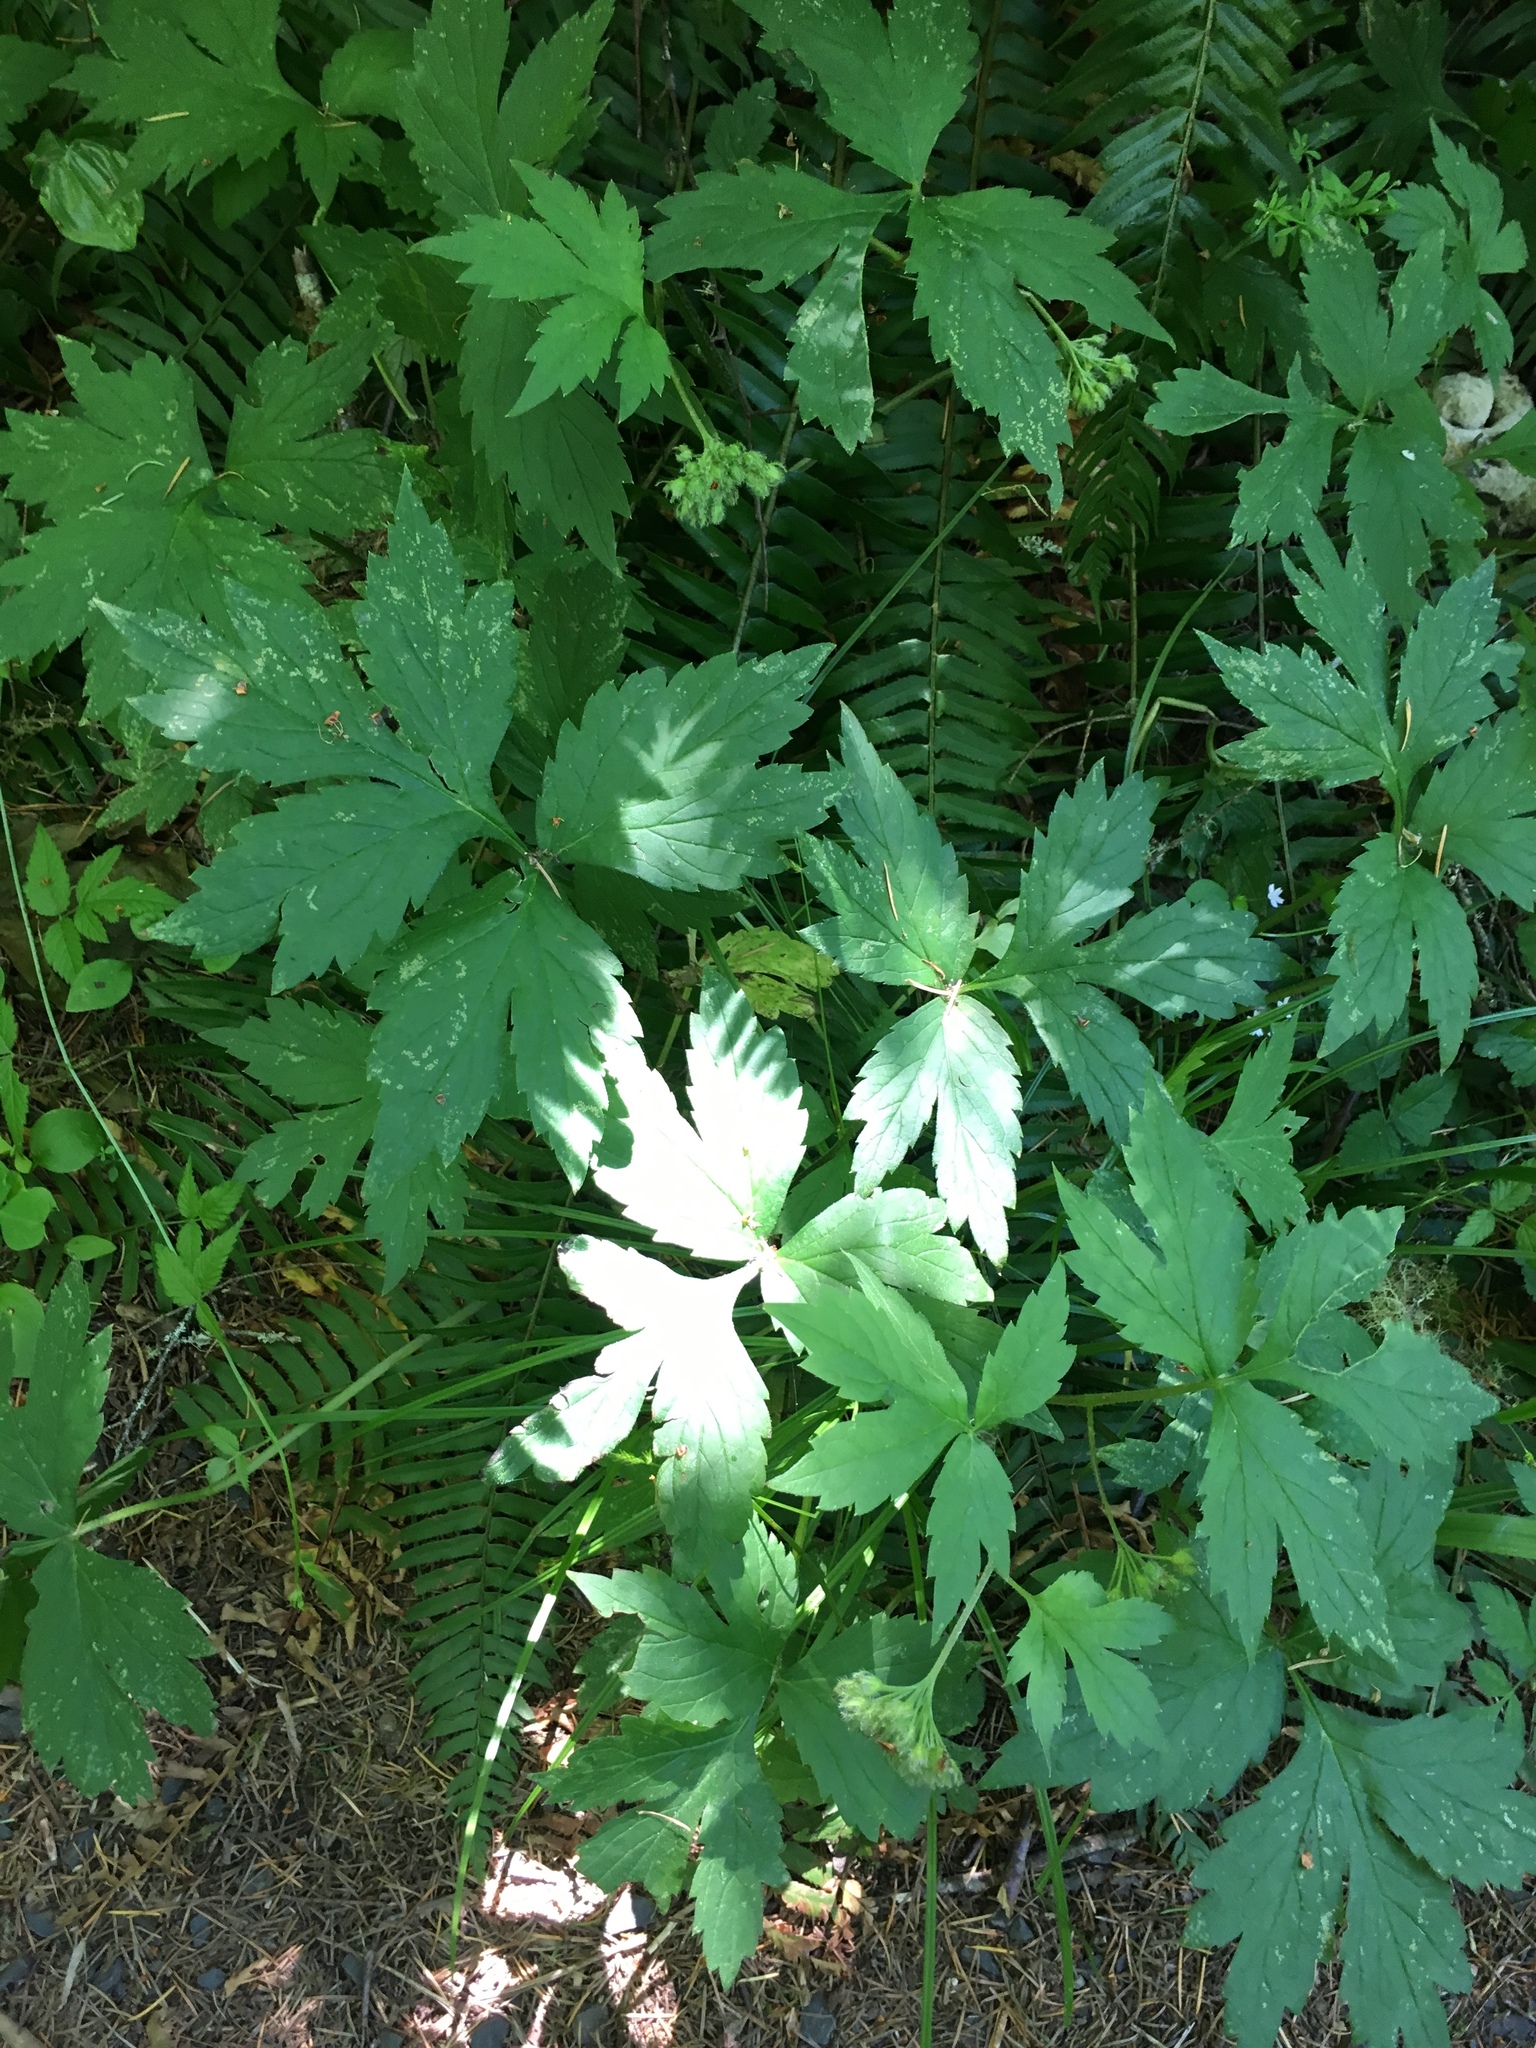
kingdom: Plantae
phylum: Tracheophyta
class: Magnoliopsida
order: Boraginales
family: Hydrophyllaceae
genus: Hydrophyllum
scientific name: Hydrophyllum tenuipes
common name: Pacific waterleaf
